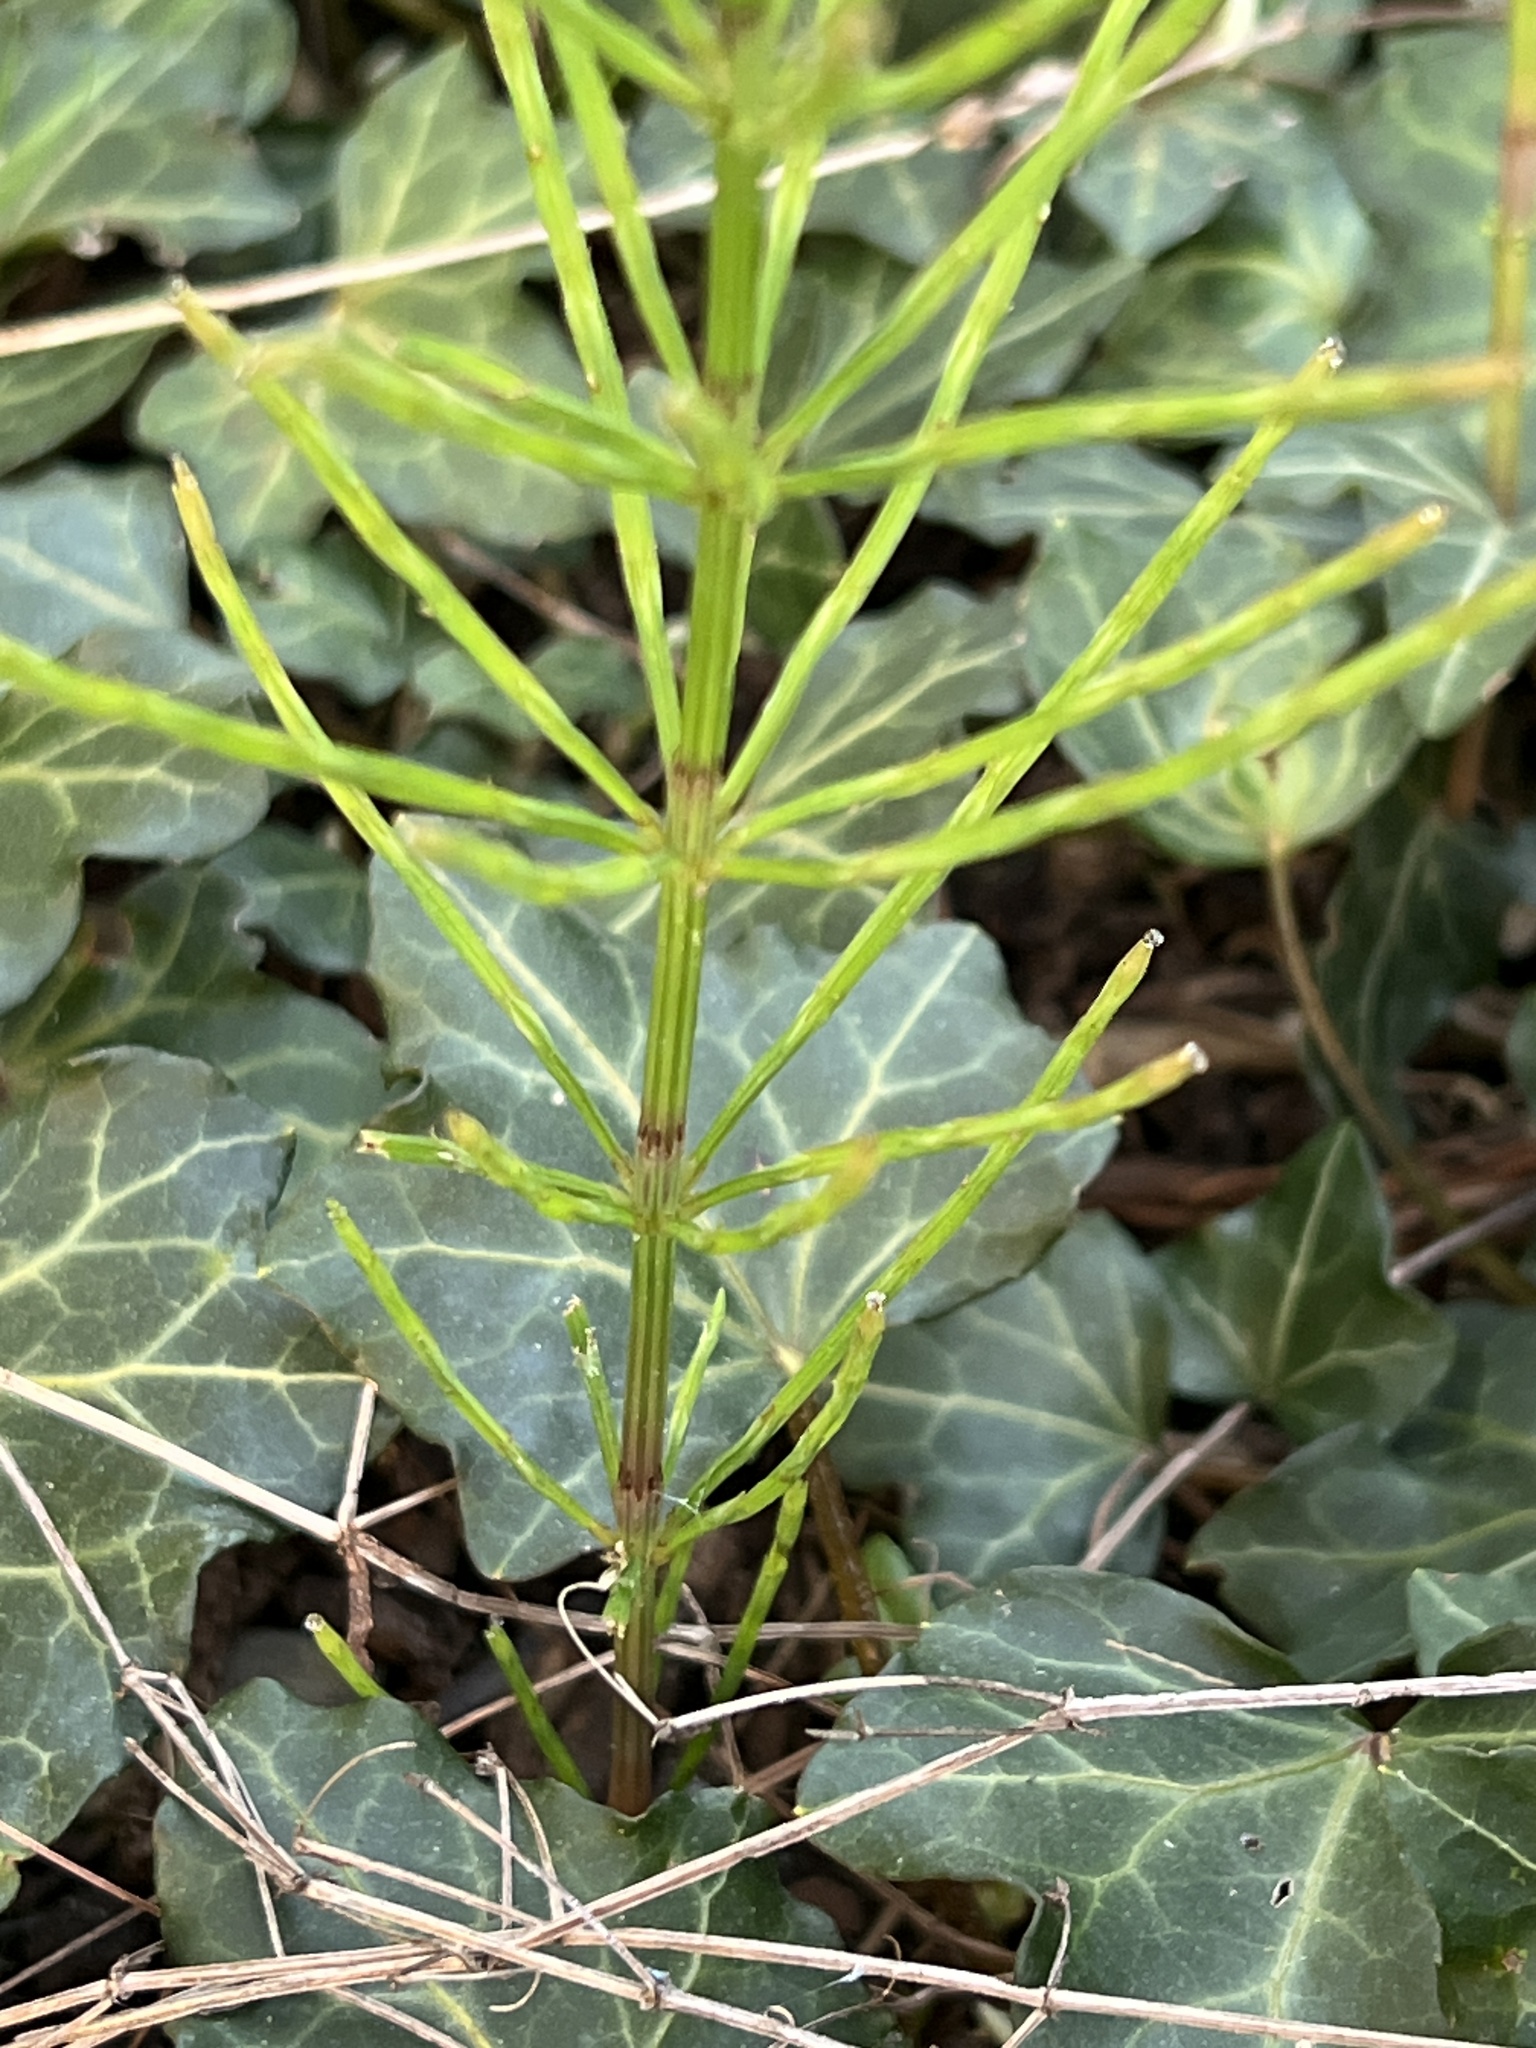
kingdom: Plantae
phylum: Tracheophyta
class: Polypodiopsida
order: Equisetales
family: Equisetaceae
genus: Equisetum
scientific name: Equisetum arvense
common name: Field horsetail
